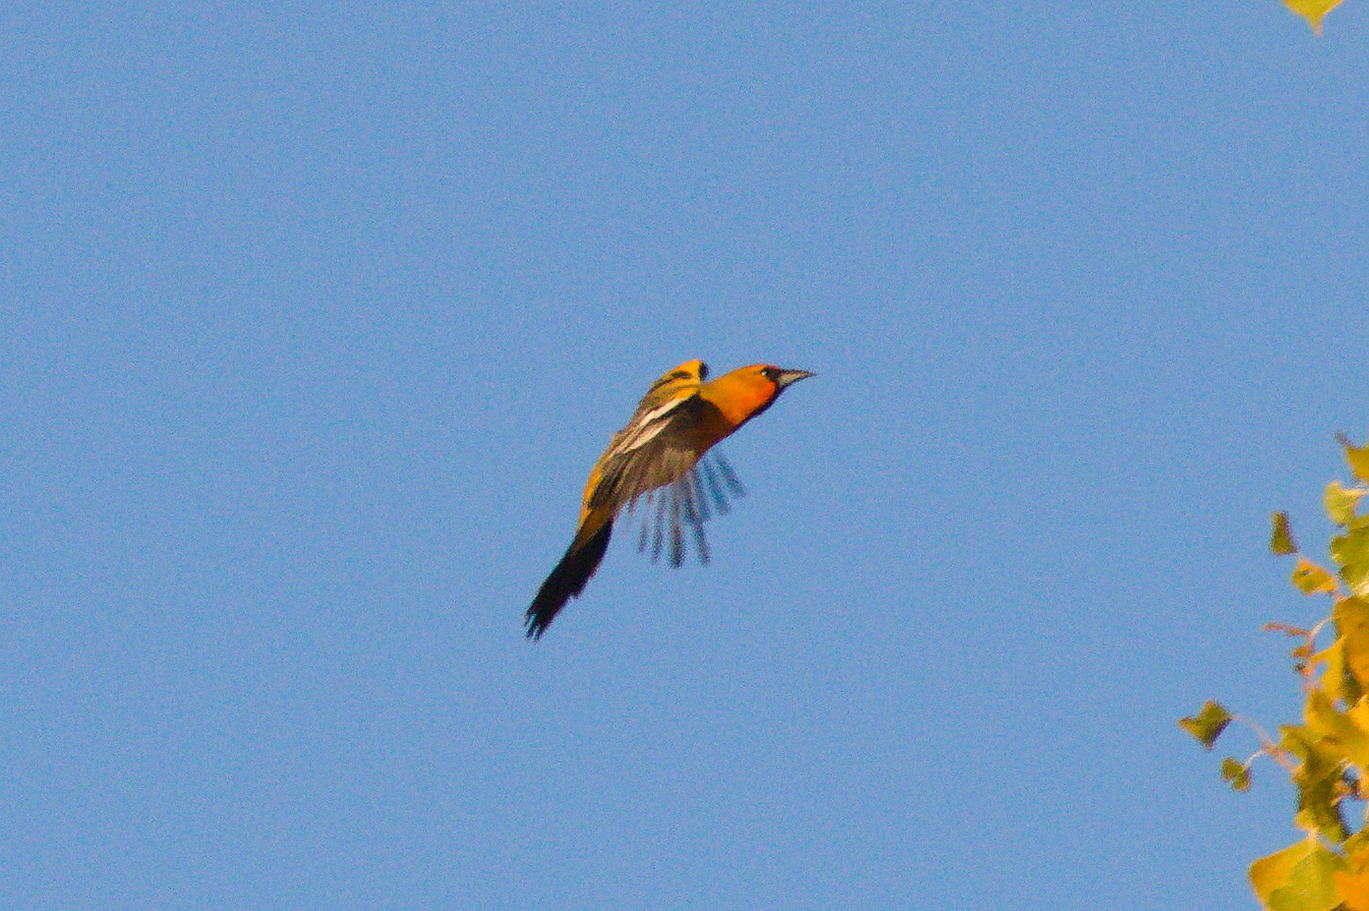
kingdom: Animalia
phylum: Chordata
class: Aves
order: Passeriformes
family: Icteridae
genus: Icterus
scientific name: Icterus pustulatus
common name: Streak-backed oriole
